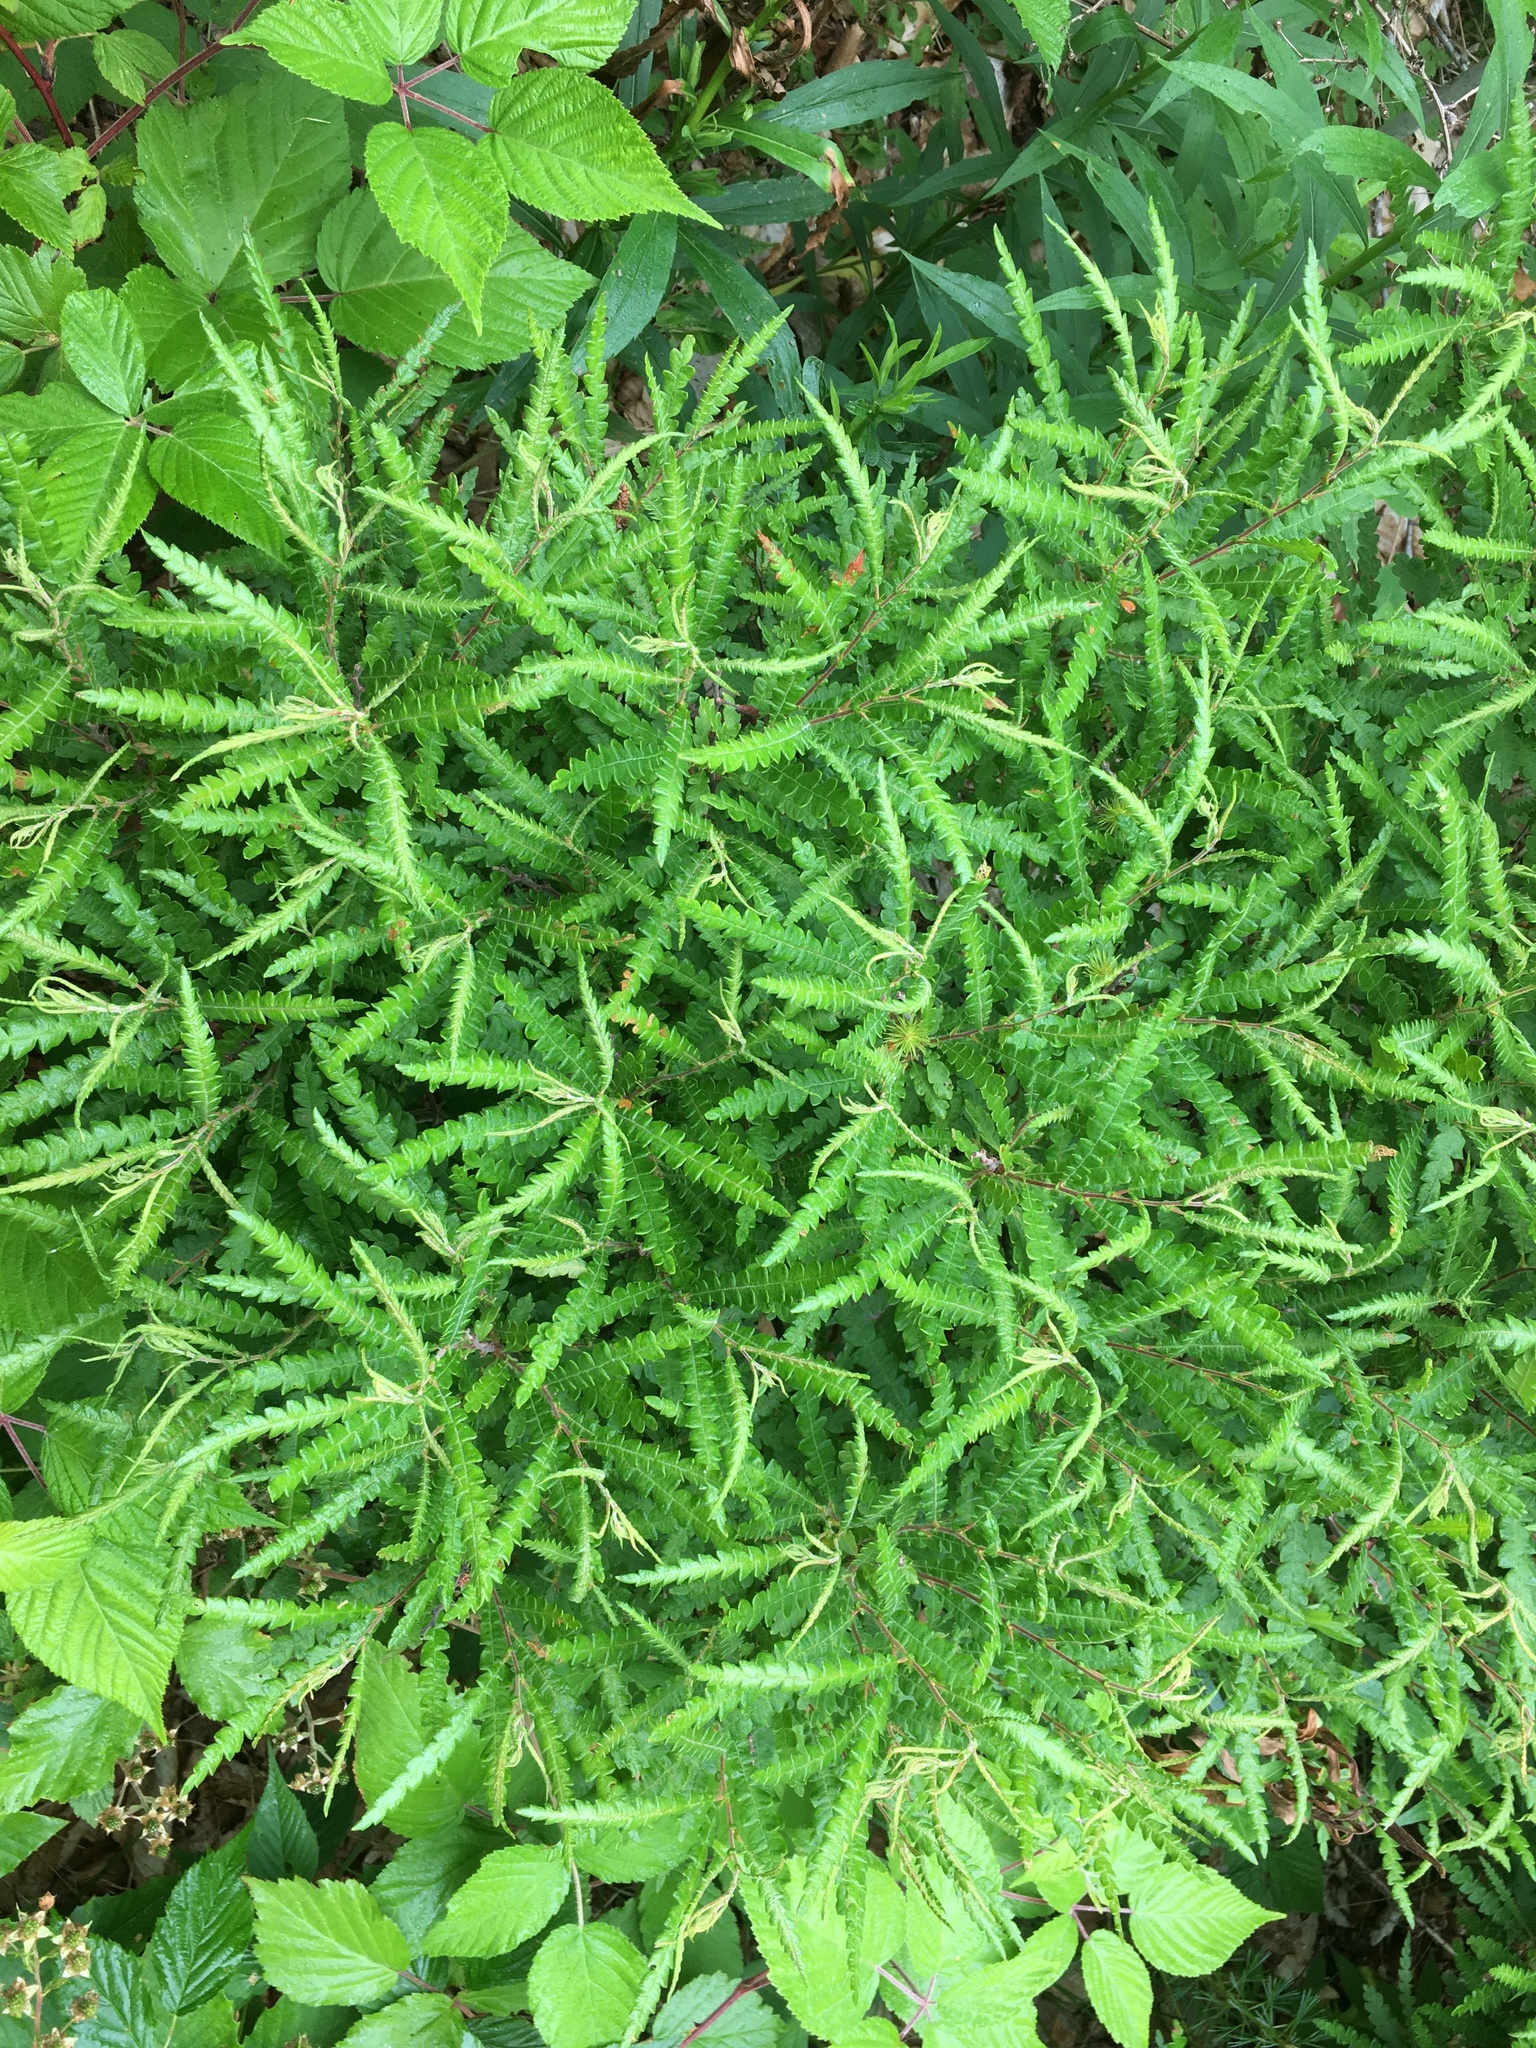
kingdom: Plantae
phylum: Tracheophyta
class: Magnoliopsida
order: Fagales
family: Myricaceae
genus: Comptonia
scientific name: Comptonia peregrina
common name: Sweet-fern
